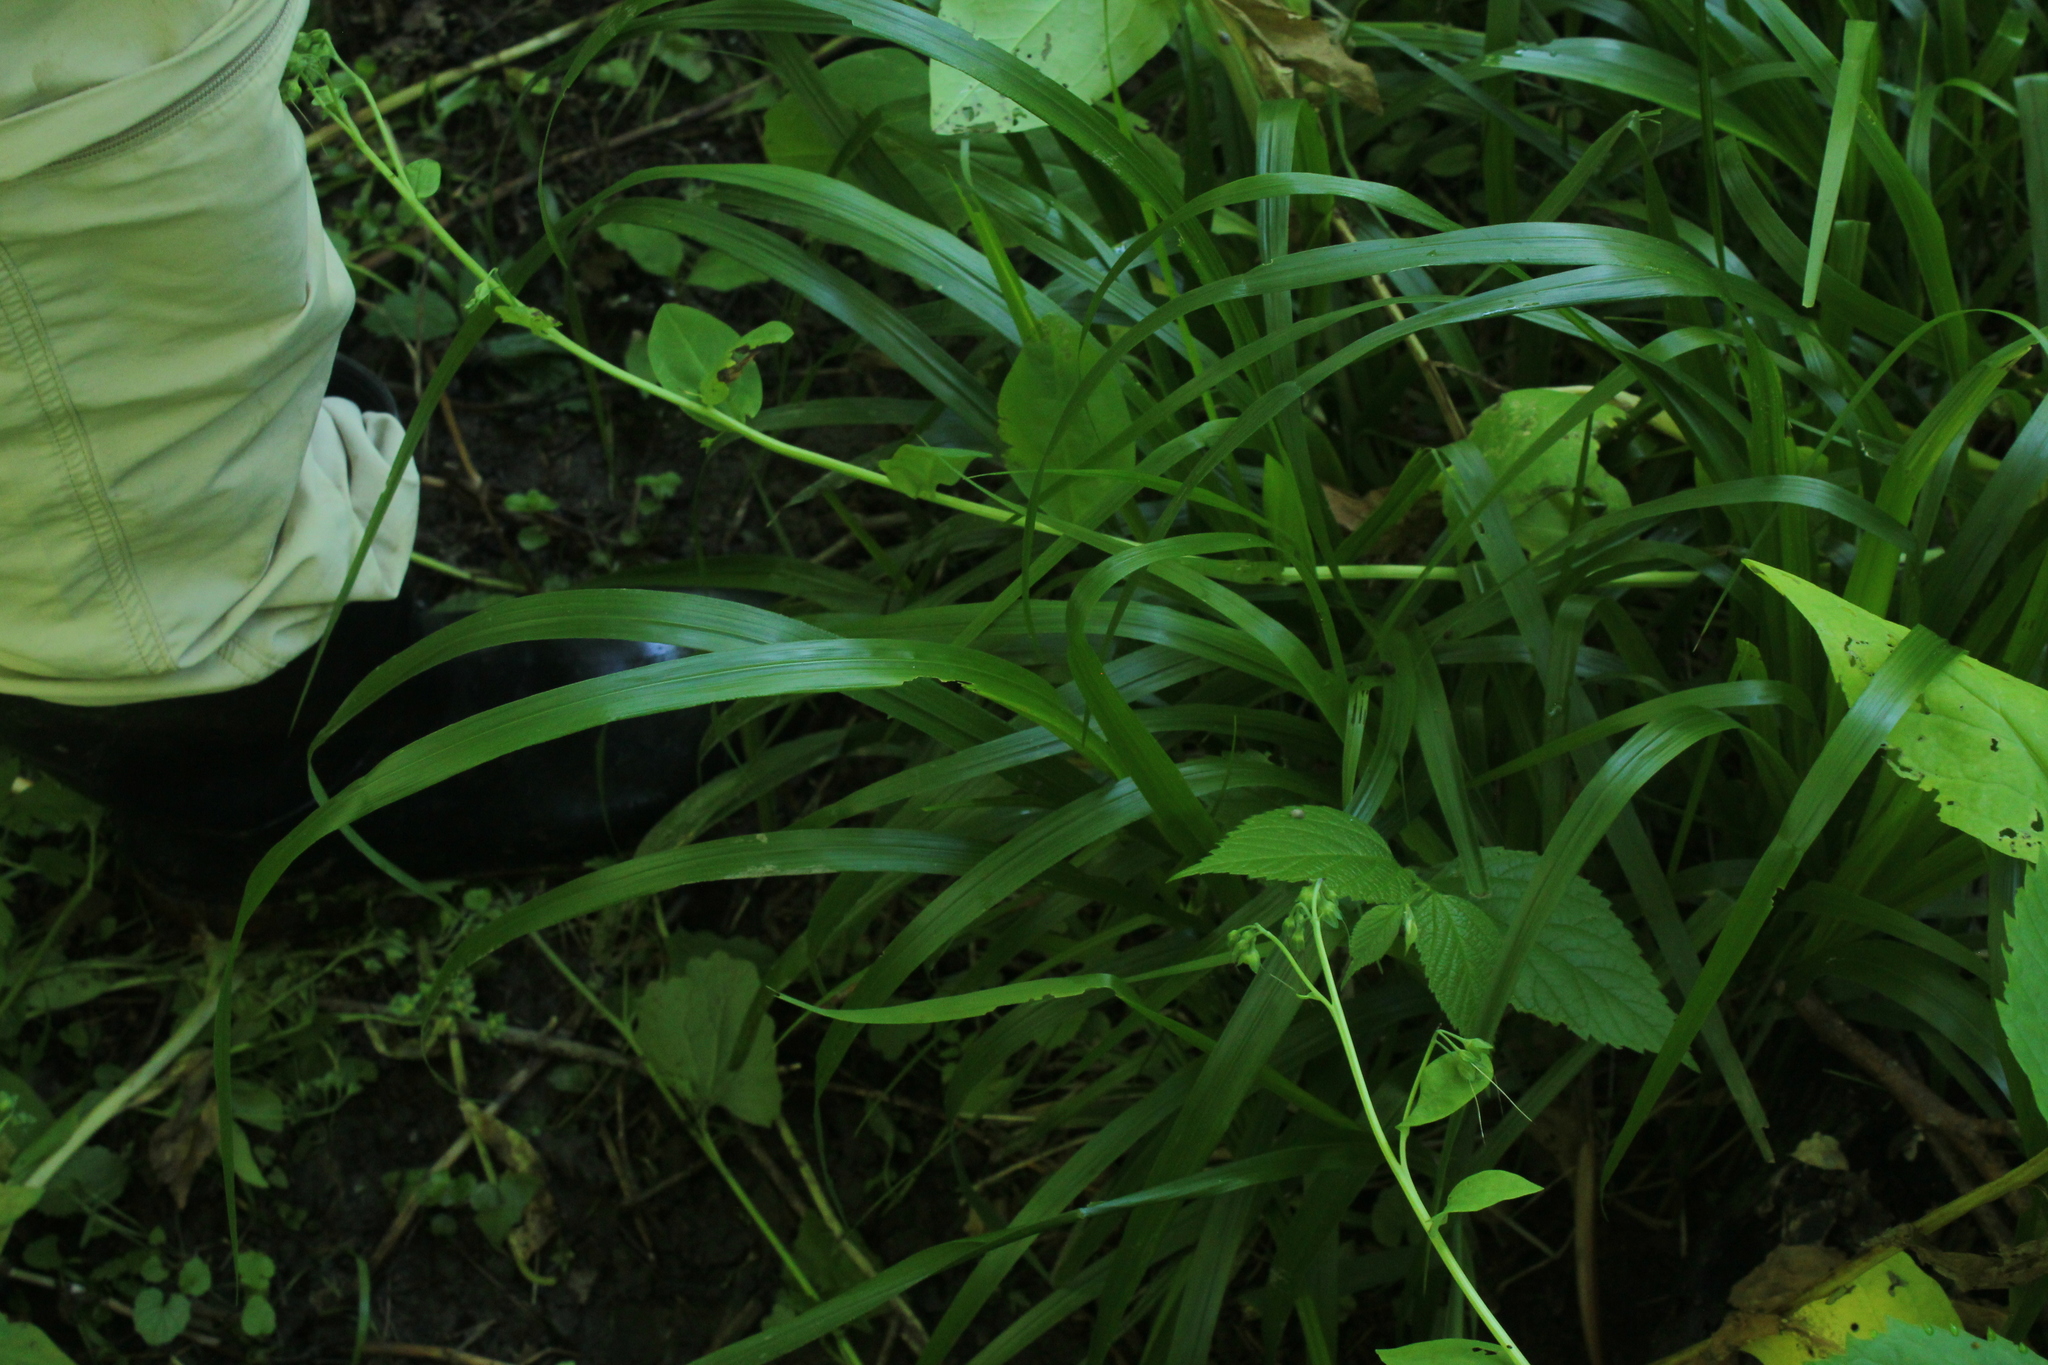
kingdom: Plantae
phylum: Tracheophyta
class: Liliopsida
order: Poales
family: Poaceae
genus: Diarrhena
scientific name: Diarrhena obovata
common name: Beakgrass
